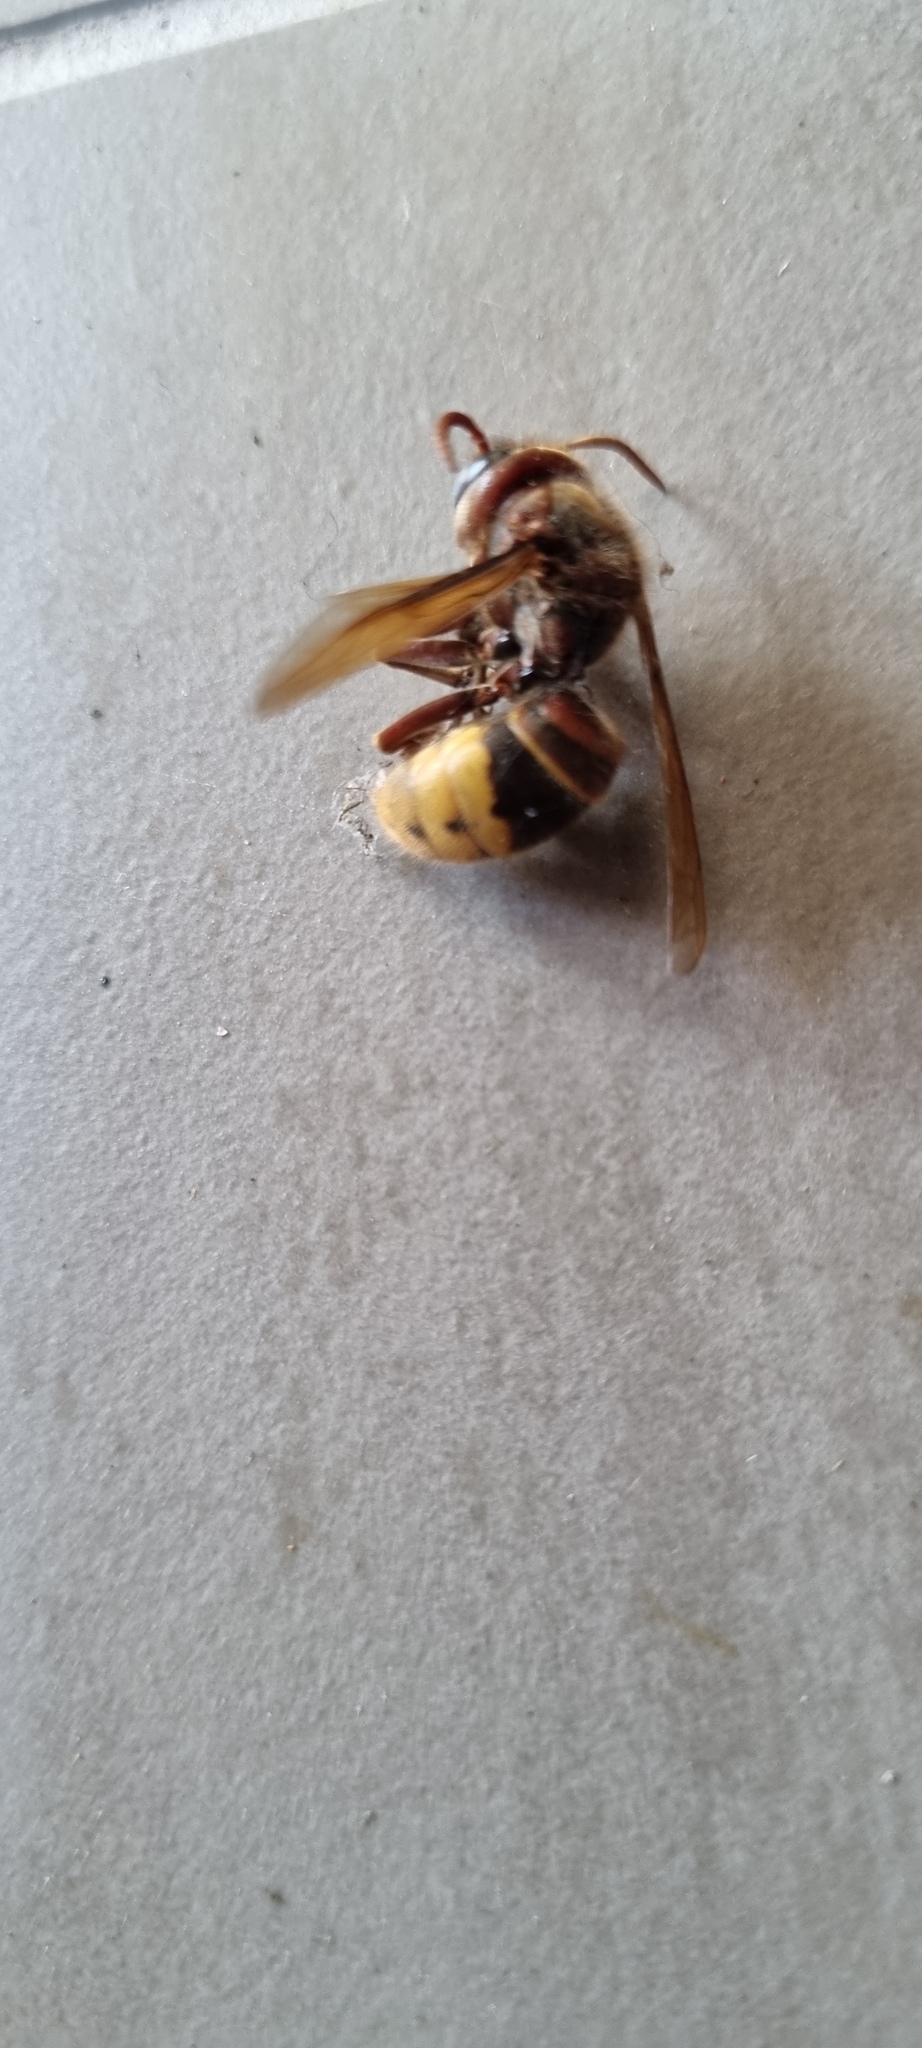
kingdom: Animalia
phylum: Arthropoda
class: Insecta
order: Hymenoptera
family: Vespidae
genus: Vespa
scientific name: Vespa crabro
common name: Hornet
